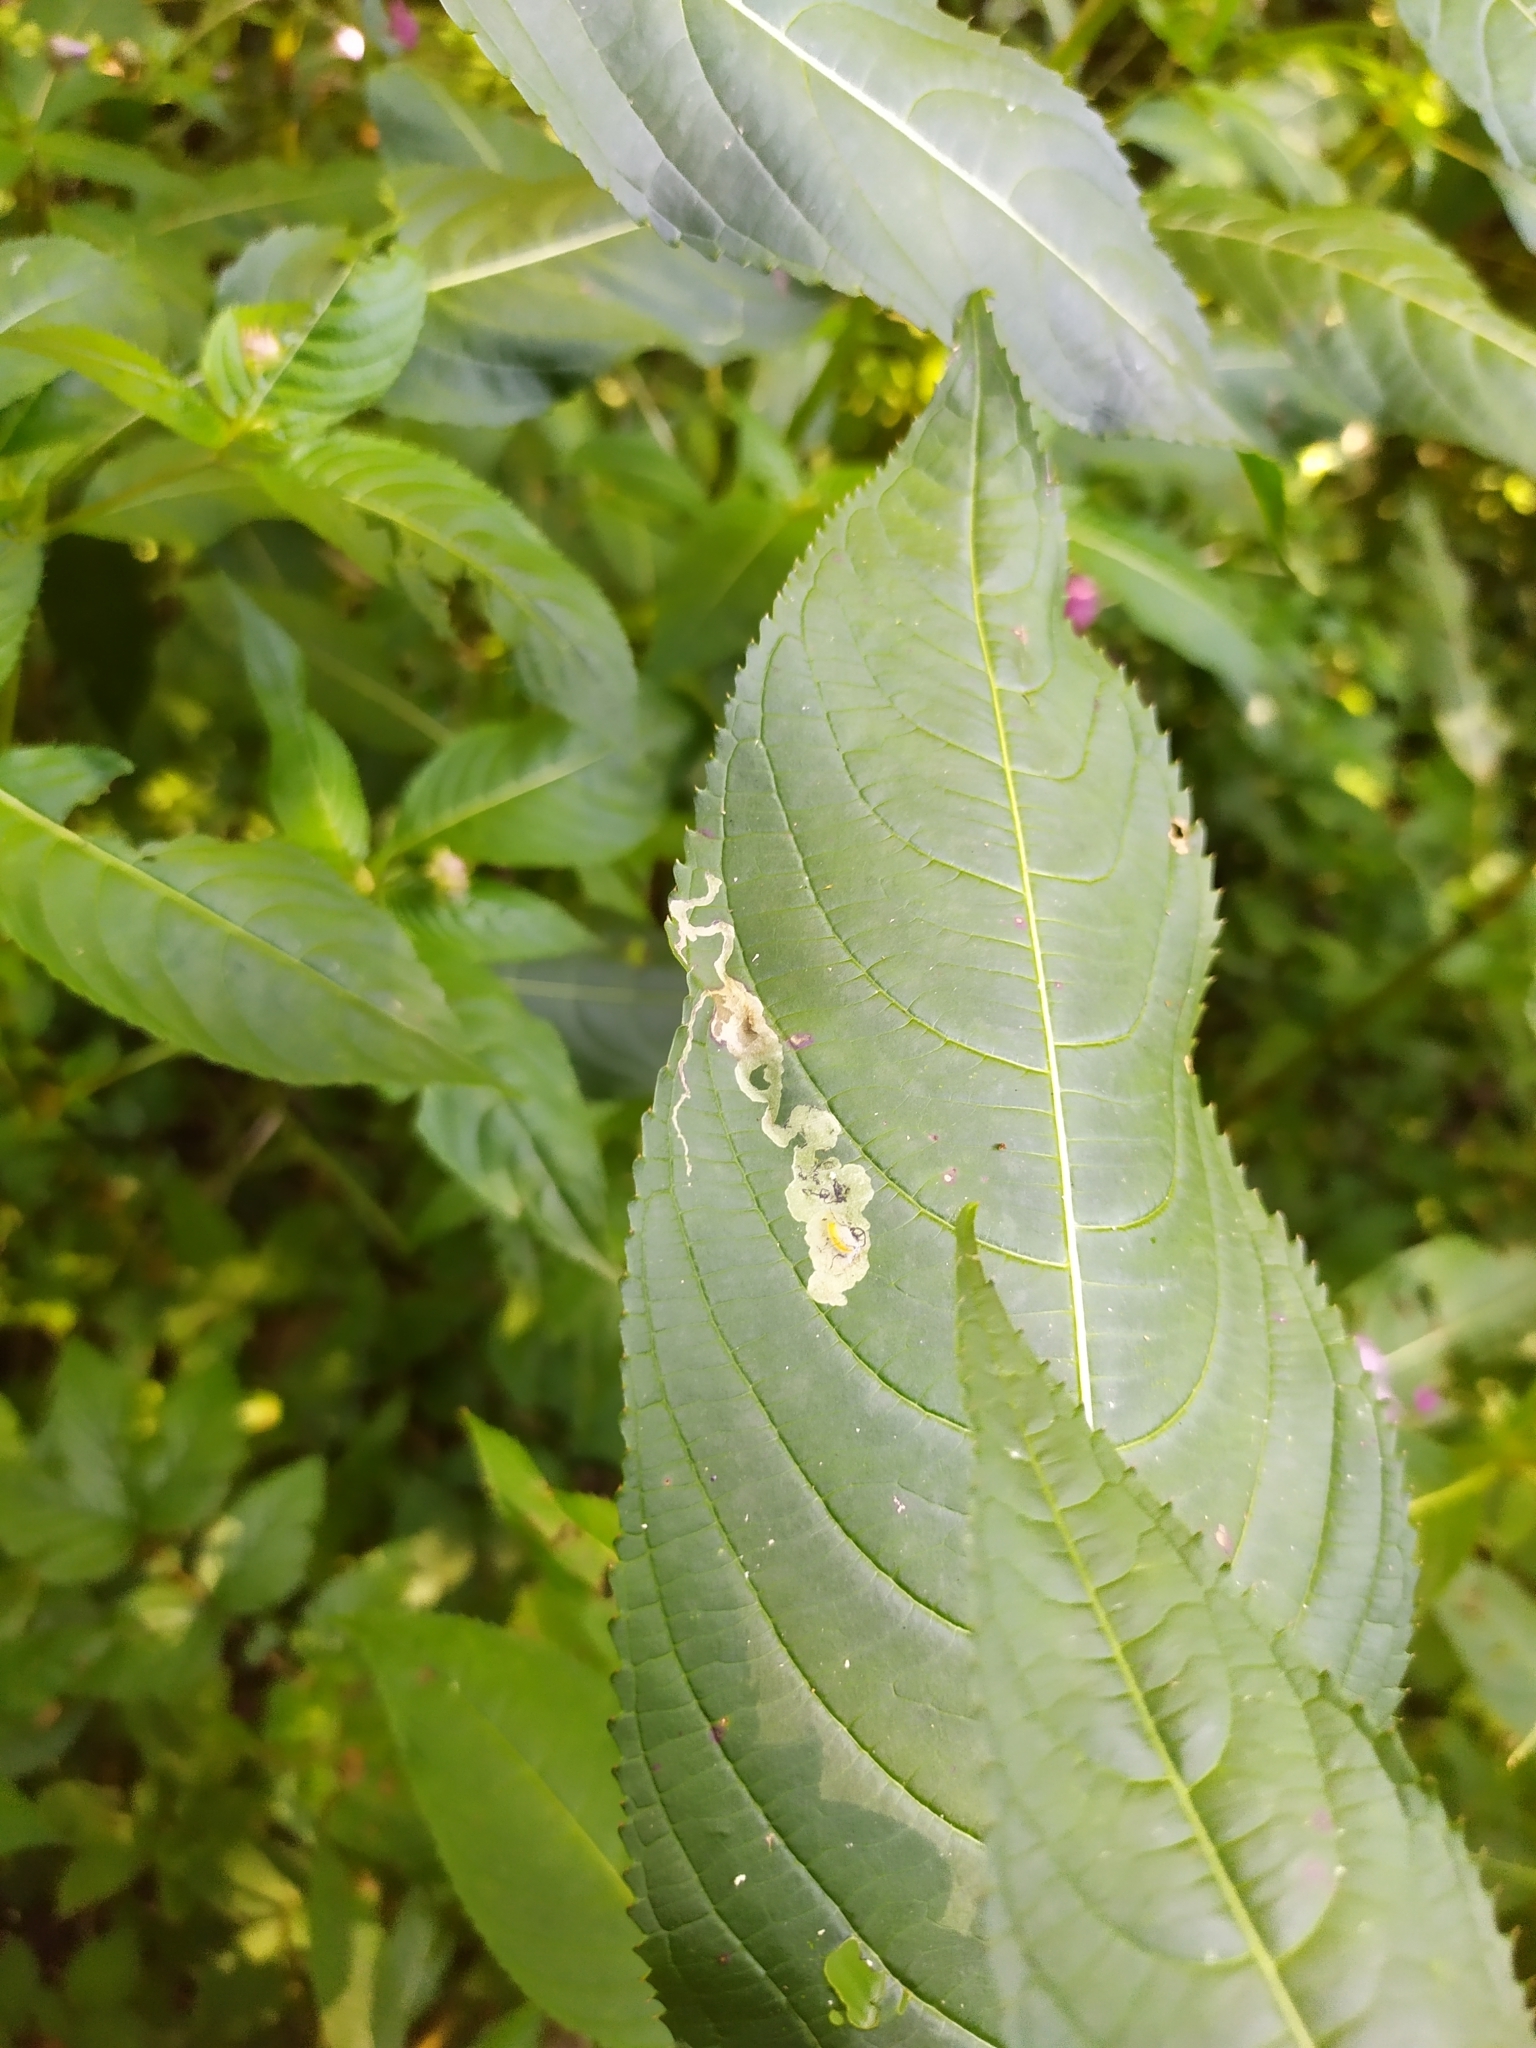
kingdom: Animalia
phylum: Arthropoda
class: Insecta
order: Diptera
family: Agromyzidae
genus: Phytoliriomyza
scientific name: Phytoliriomyza melampyga
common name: Jewelweed leaf-miner fly
